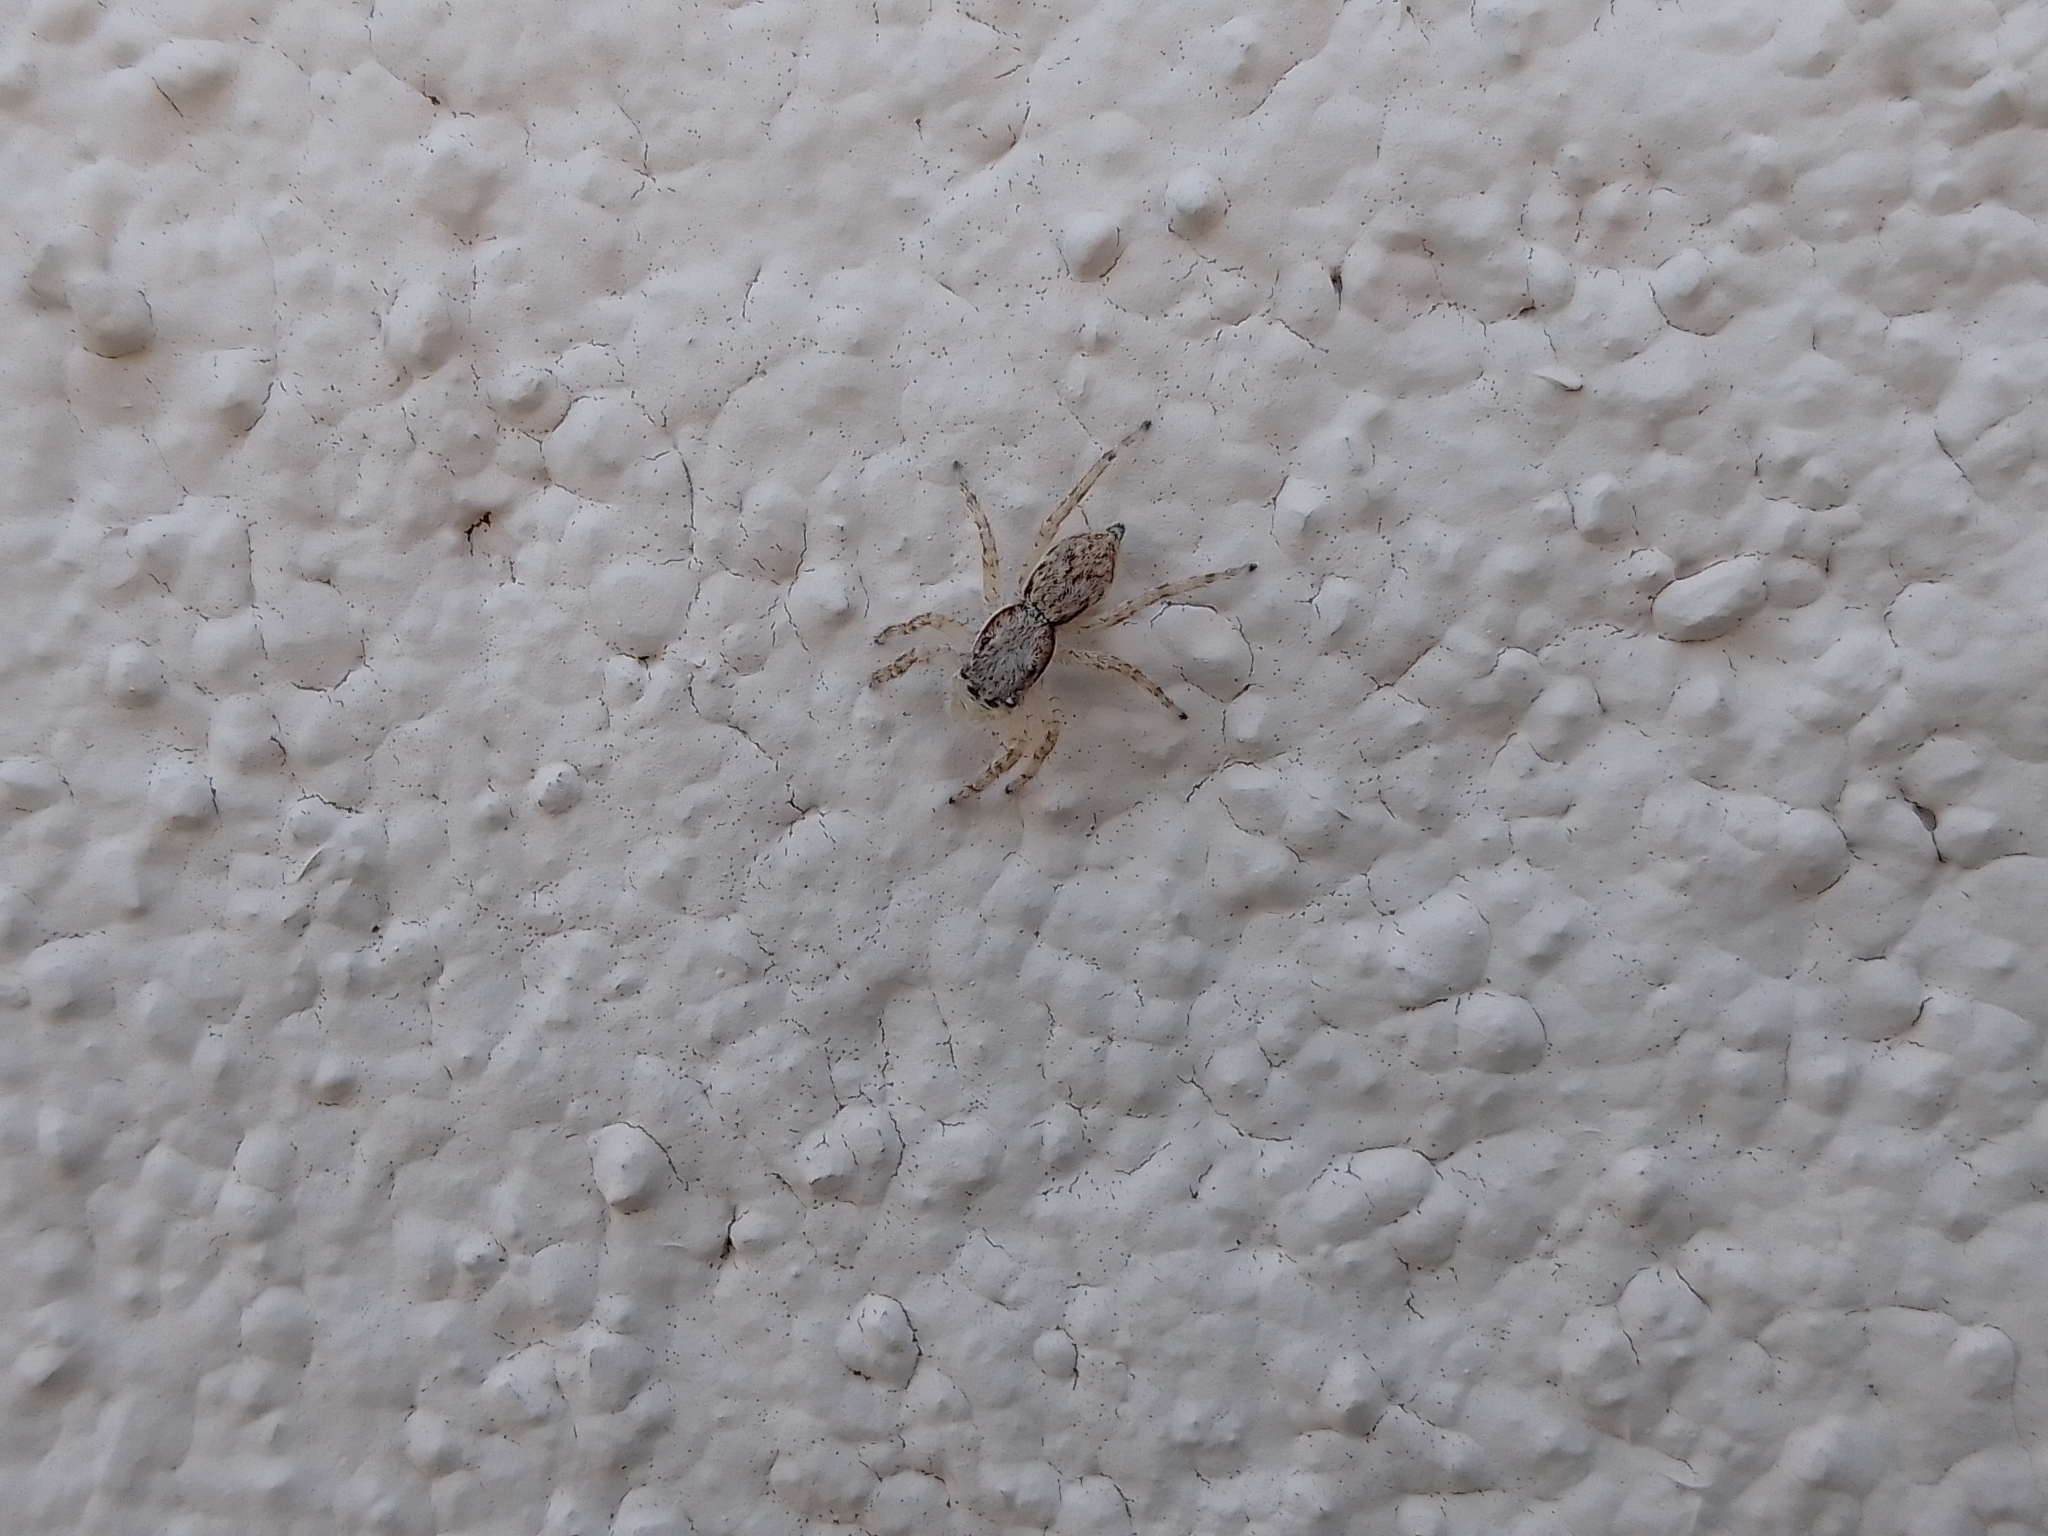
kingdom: Animalia
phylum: Arthropoda
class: Arachnida
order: Araneae
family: Salticidae
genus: Menemerus
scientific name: Menemerus bivittatus
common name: Gray wall jumper
